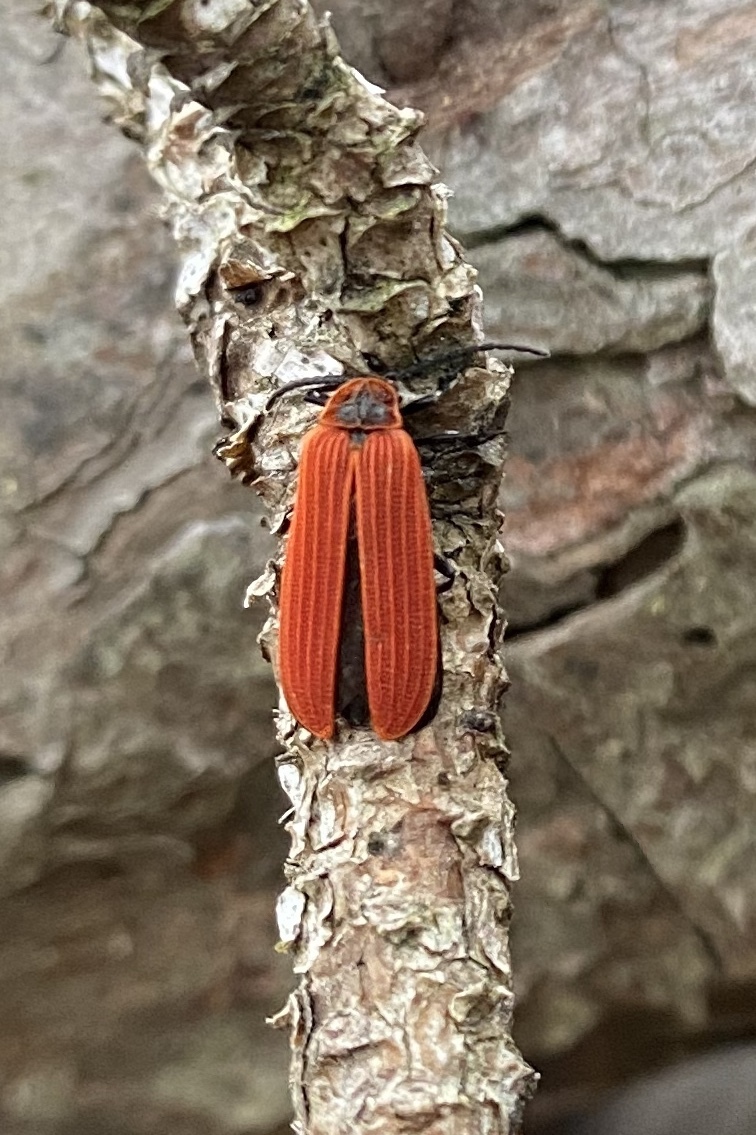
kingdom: Animalia
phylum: Arthropoda
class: Insecta
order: Coleoptera
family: Lycidae
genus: Dictyoptera
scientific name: Dictyoptera aurora
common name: Golden net-winged beetle
